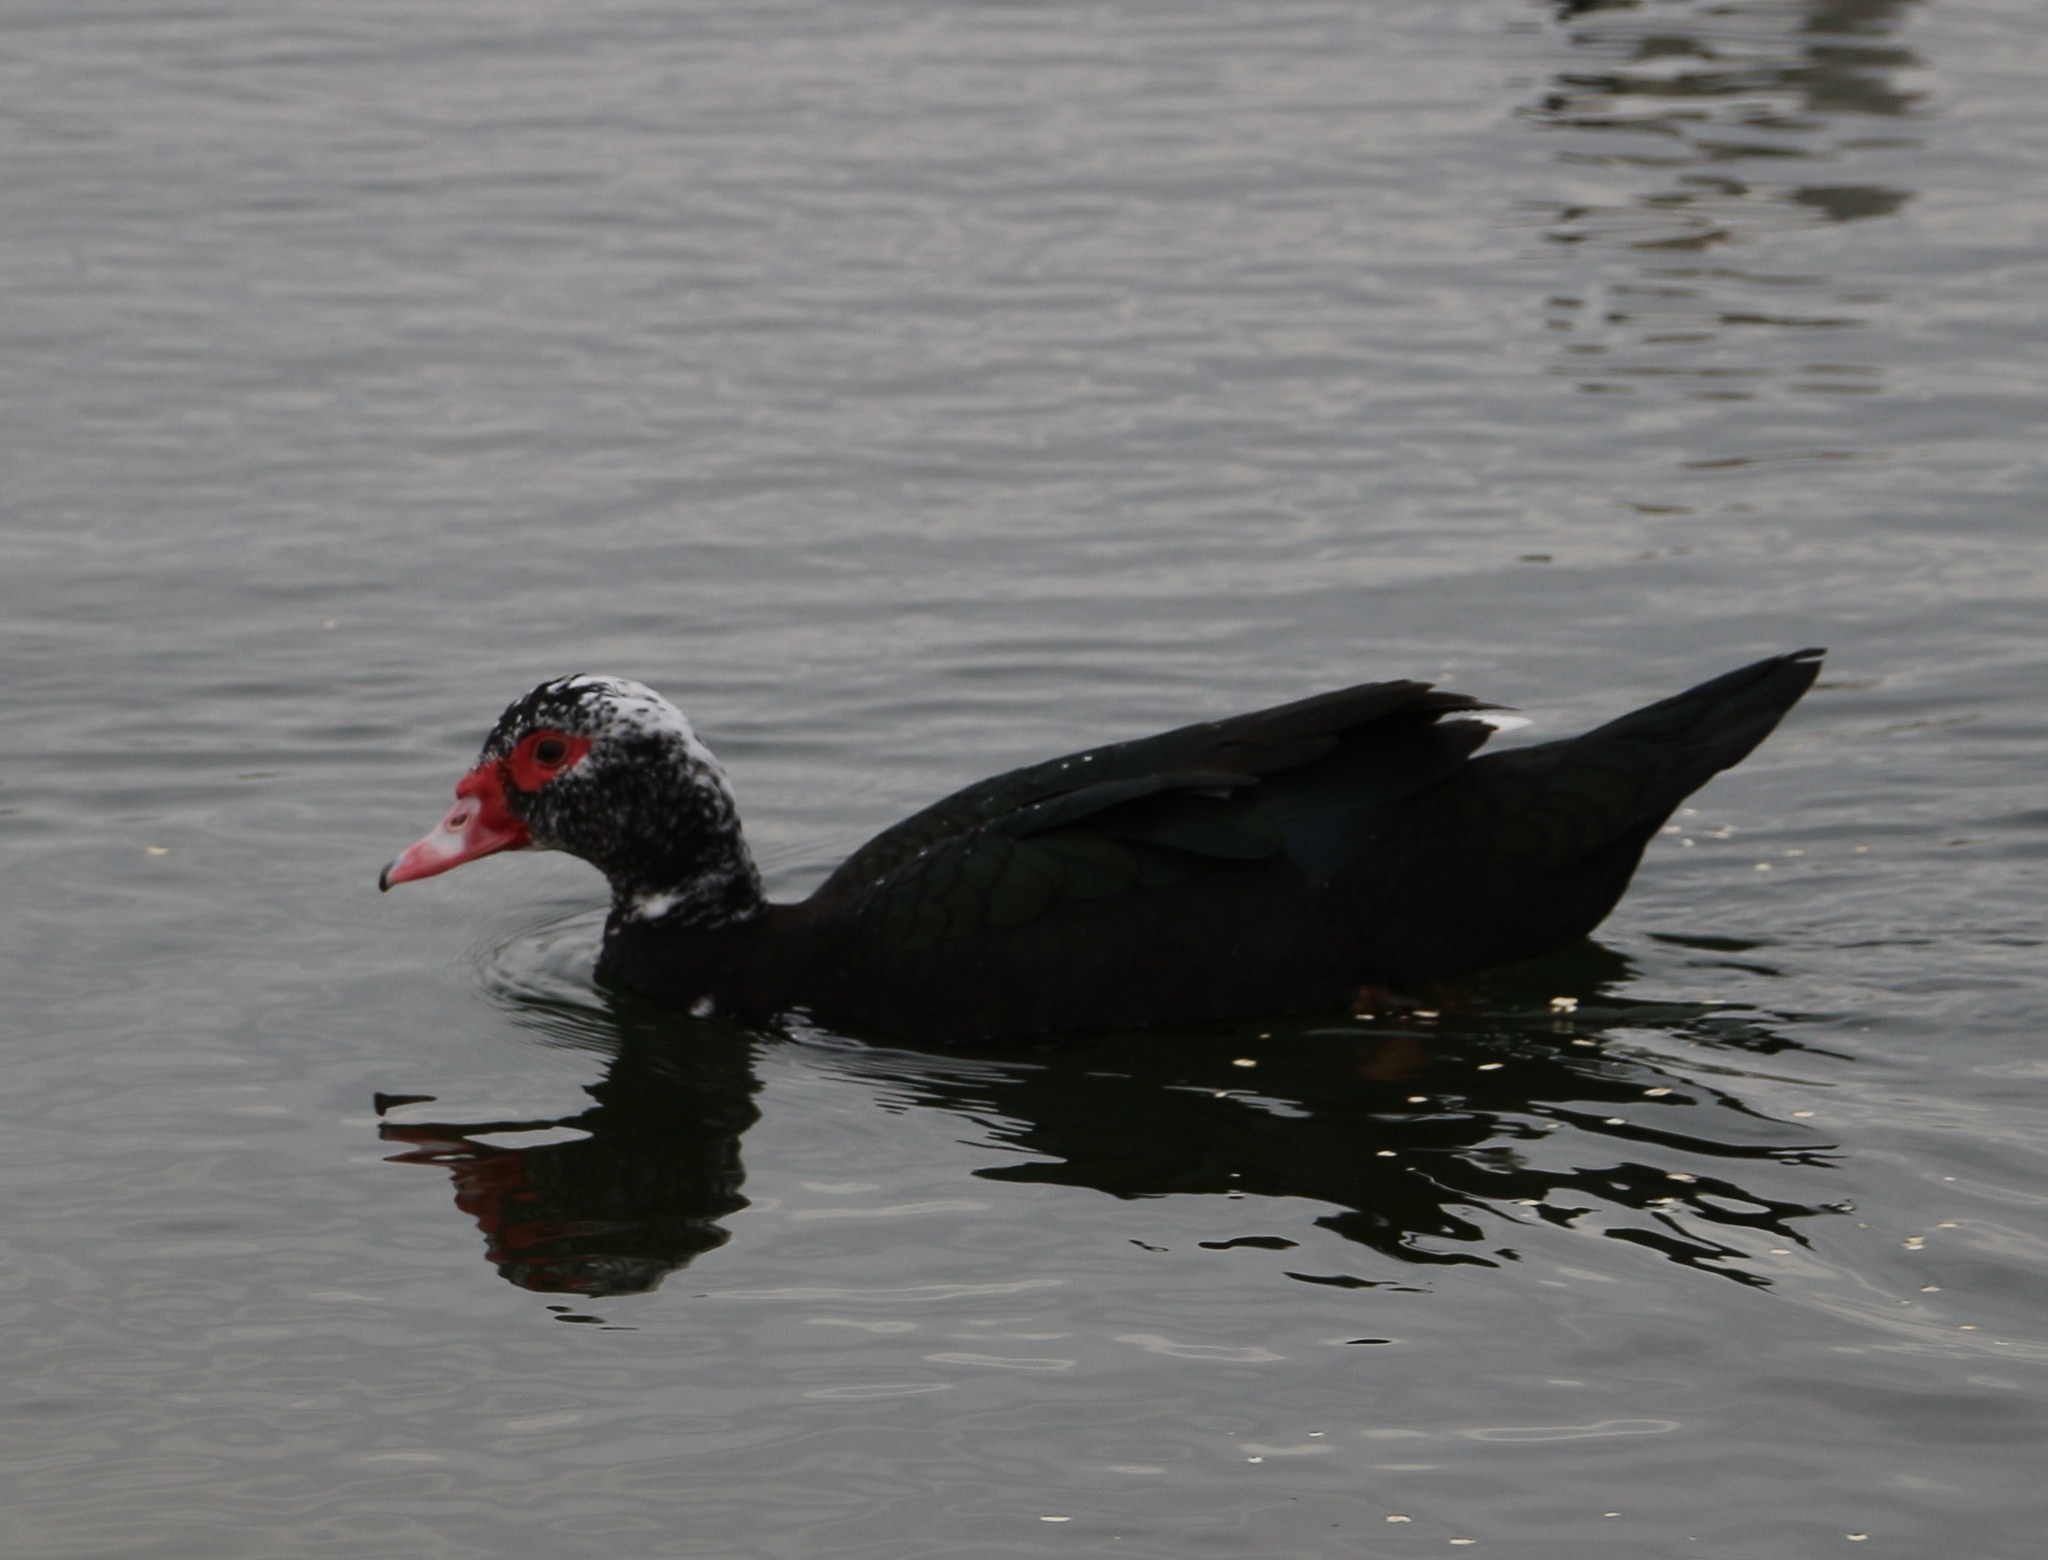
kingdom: Animalia
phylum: Chordata
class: Aves
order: Anseriformes
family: Anatidae
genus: Cairina
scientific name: Cairina moschata
